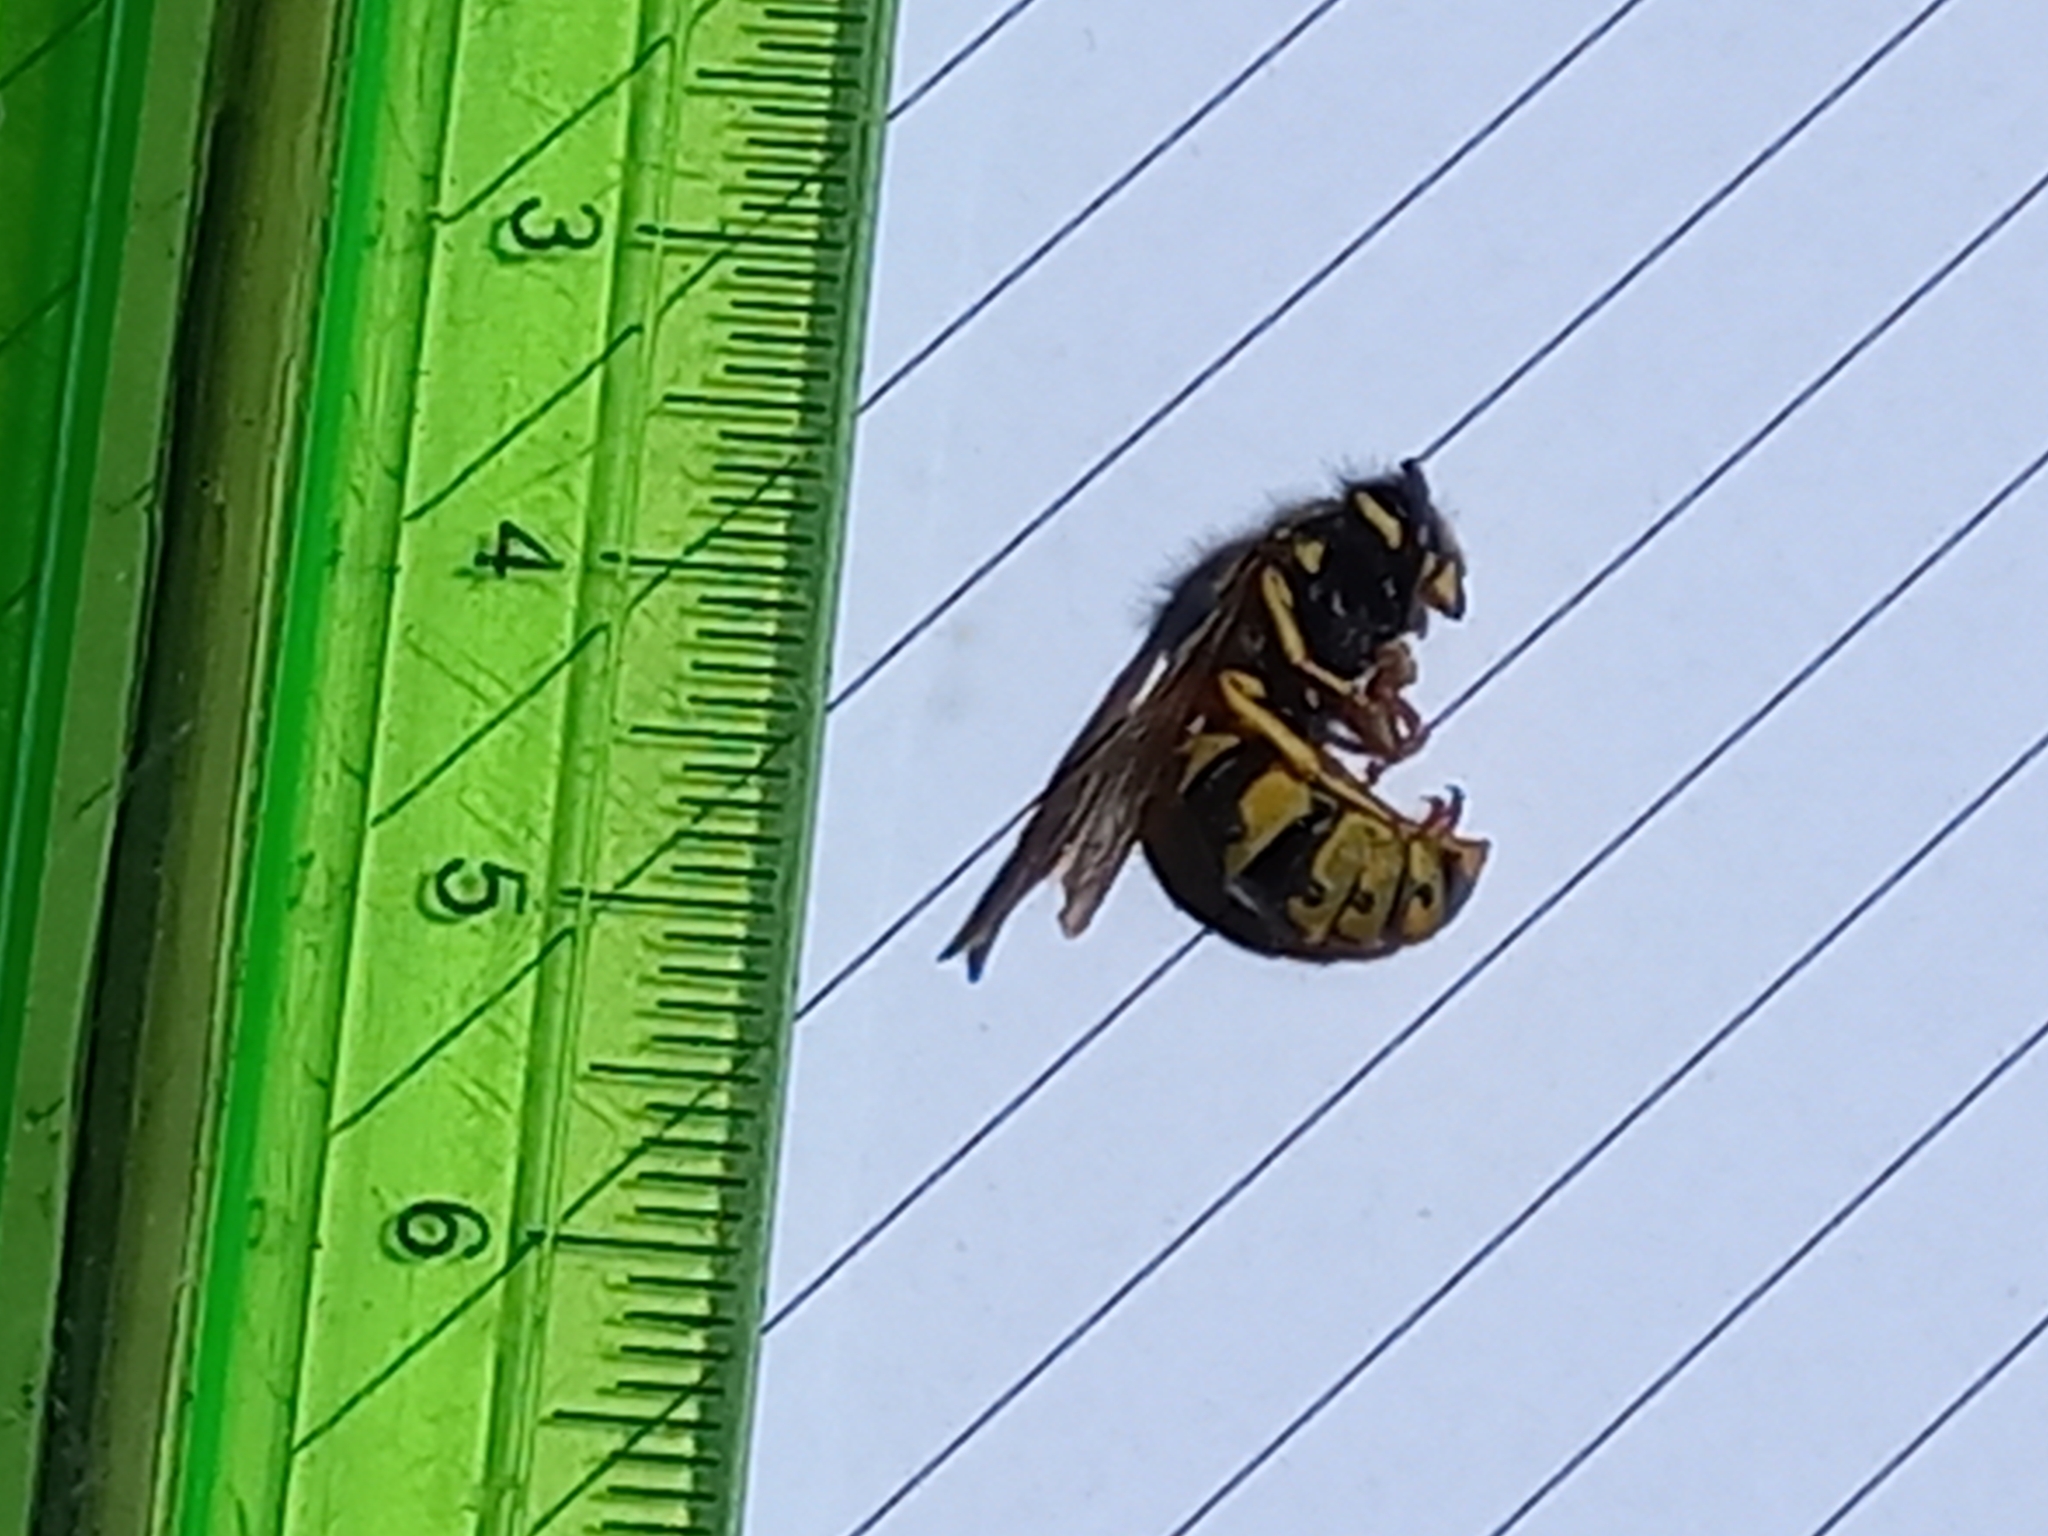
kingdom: Animalia
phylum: Arthropoda
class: Insecta
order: Hymenoptera
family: Vespidae
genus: Vespula
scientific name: Vespula germanica
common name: German wasp
